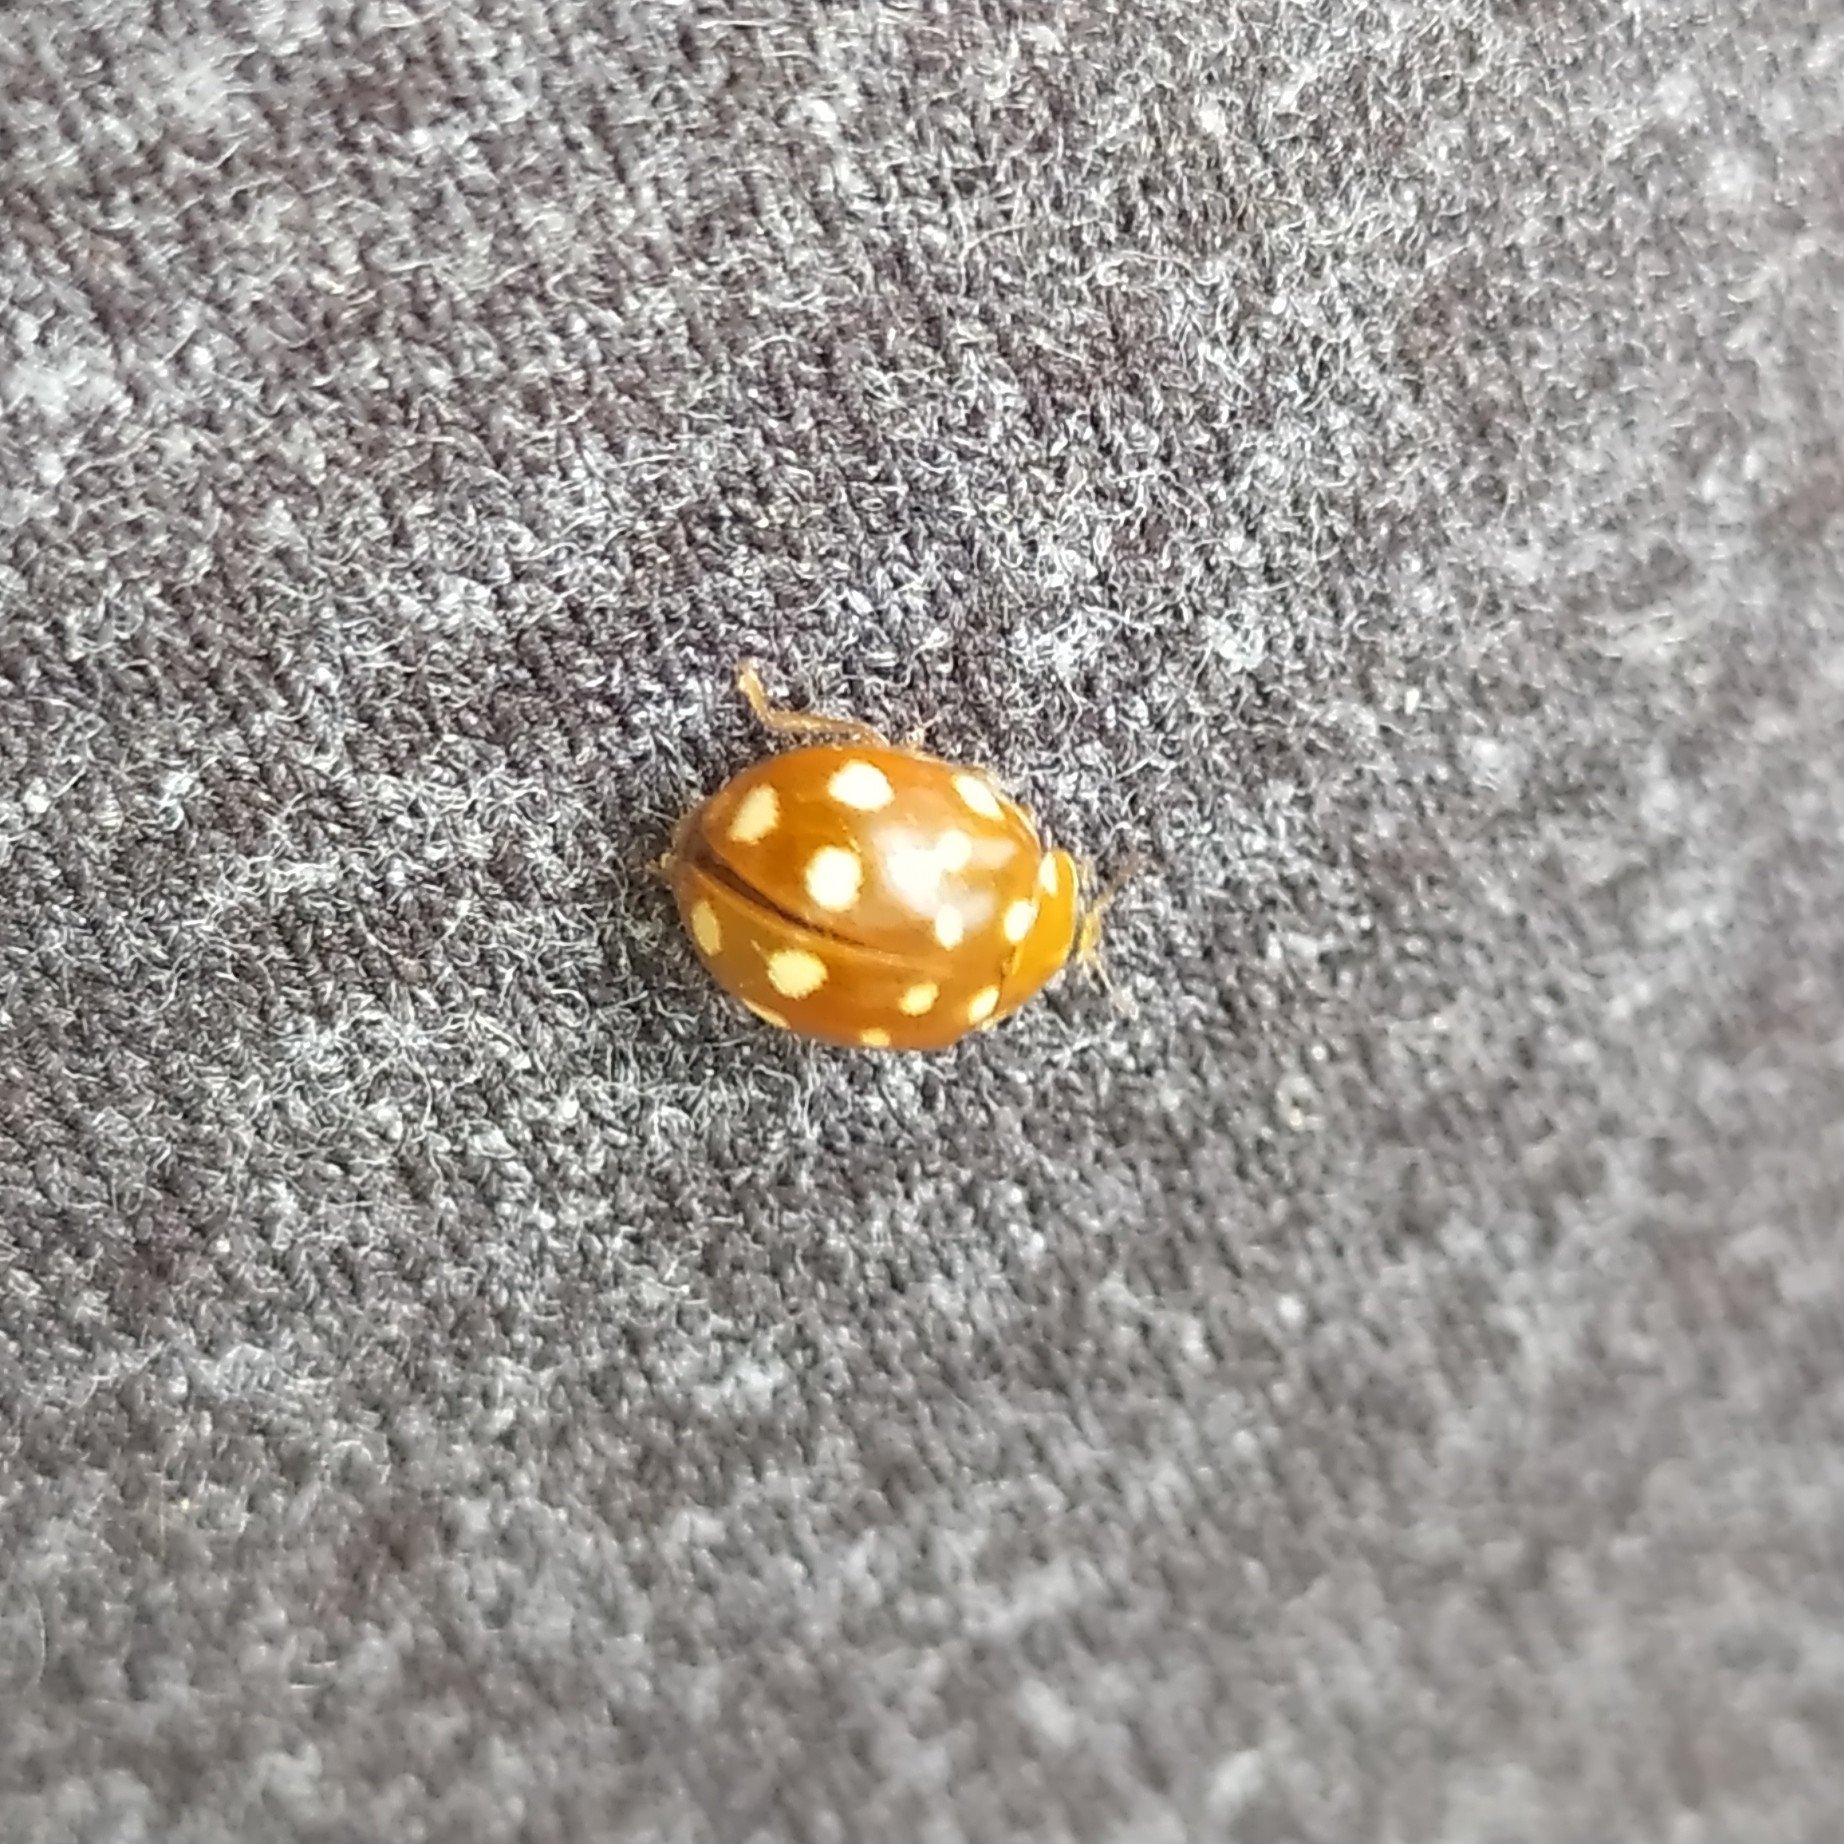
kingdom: Animalia
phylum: Arthropoda
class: Insecta
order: Coleoptera
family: Coccinellidae
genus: Calvia
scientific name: Calvia quatuordecimguttata
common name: Cream-spot ladybird
